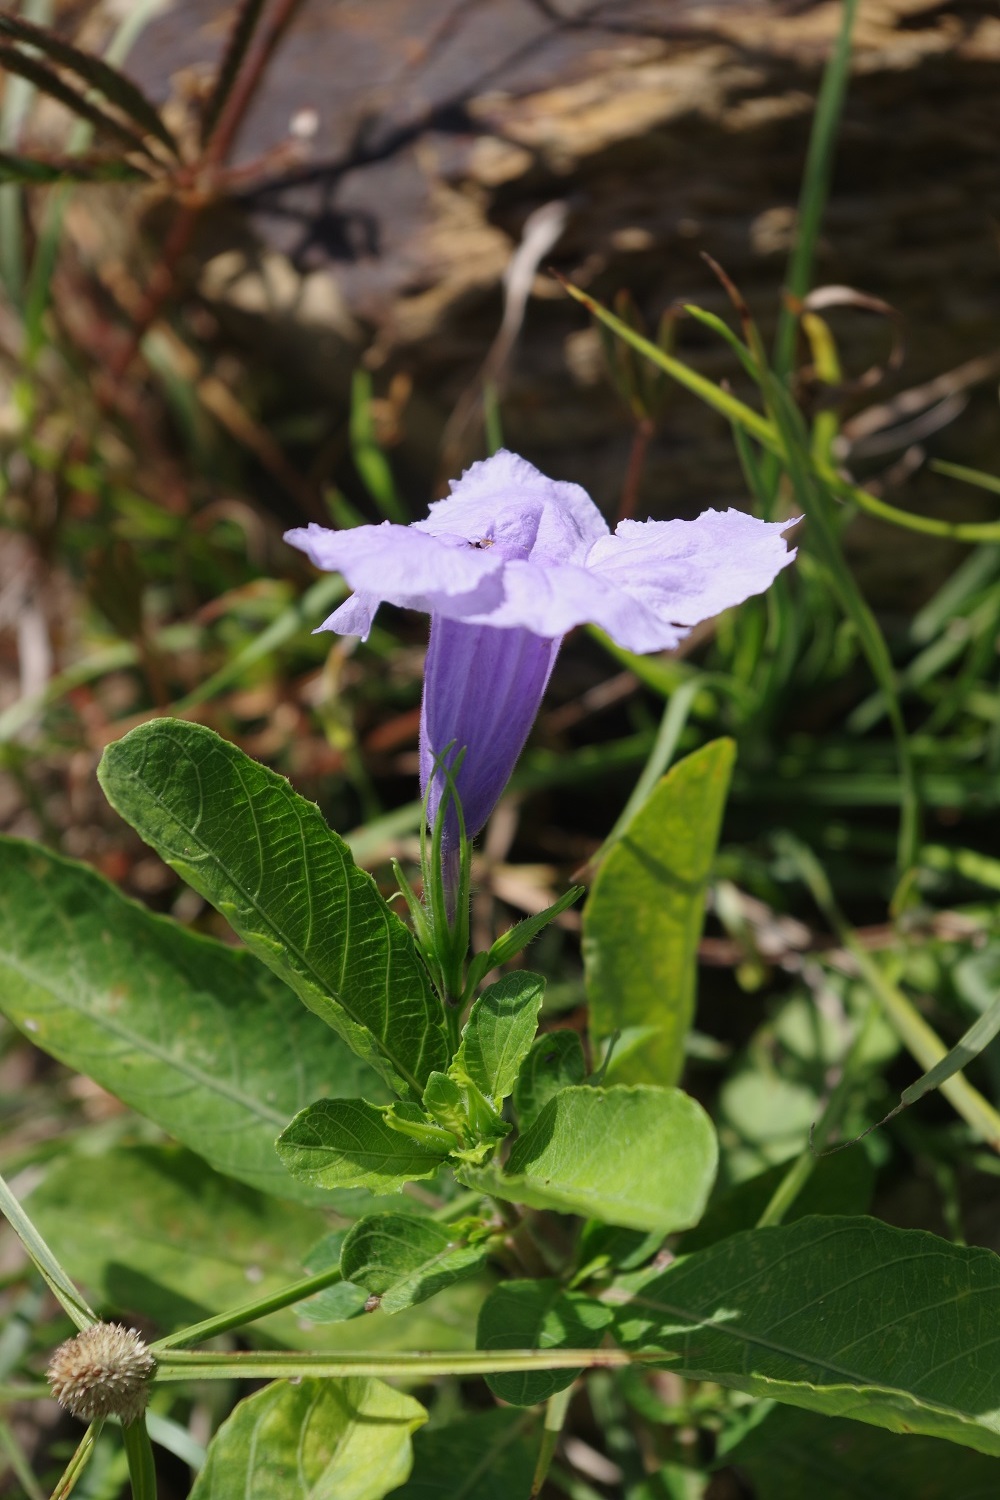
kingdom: Plantae
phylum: Tracheophyta
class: Magnoliopsida
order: Lamiales
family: Acanthaceae
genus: Ruellia
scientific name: Ruellia tuberosa
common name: Devil's bit
